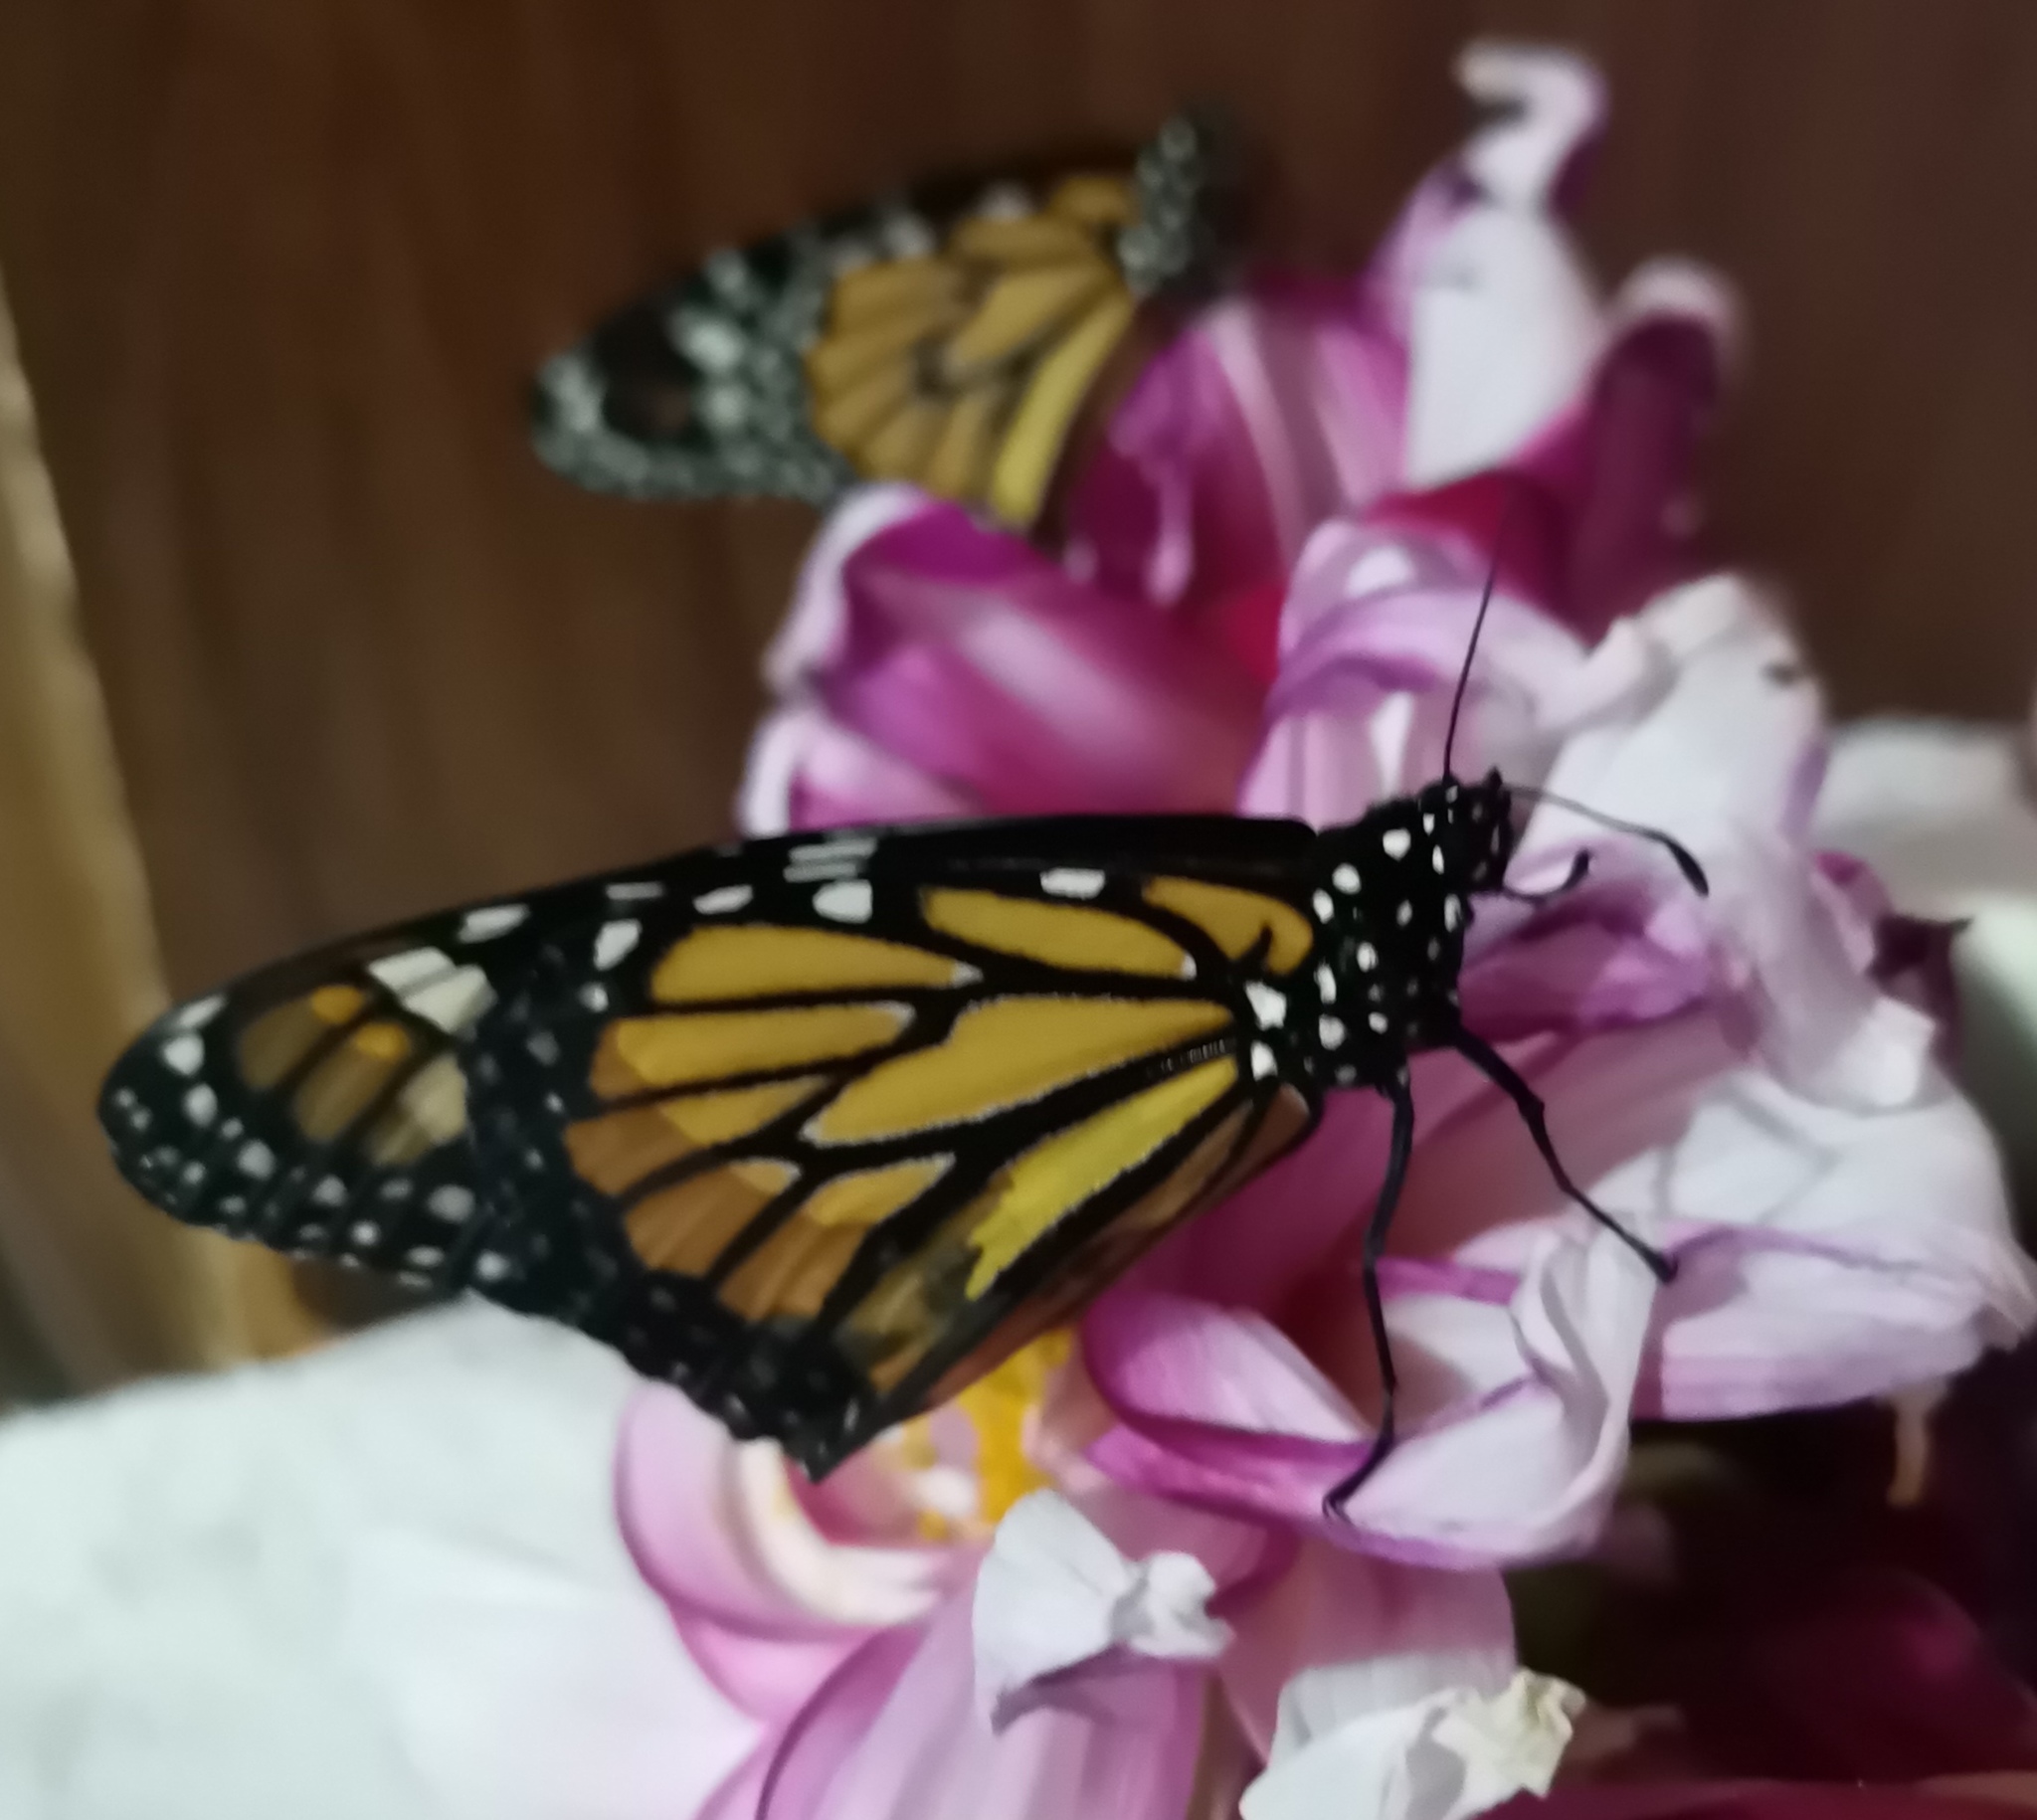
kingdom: Animalia
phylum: Arthropoda
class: Insecta
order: Lepidoptera
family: Nymphalidae
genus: Danaus
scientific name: Danaus plexippus
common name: Monarch
